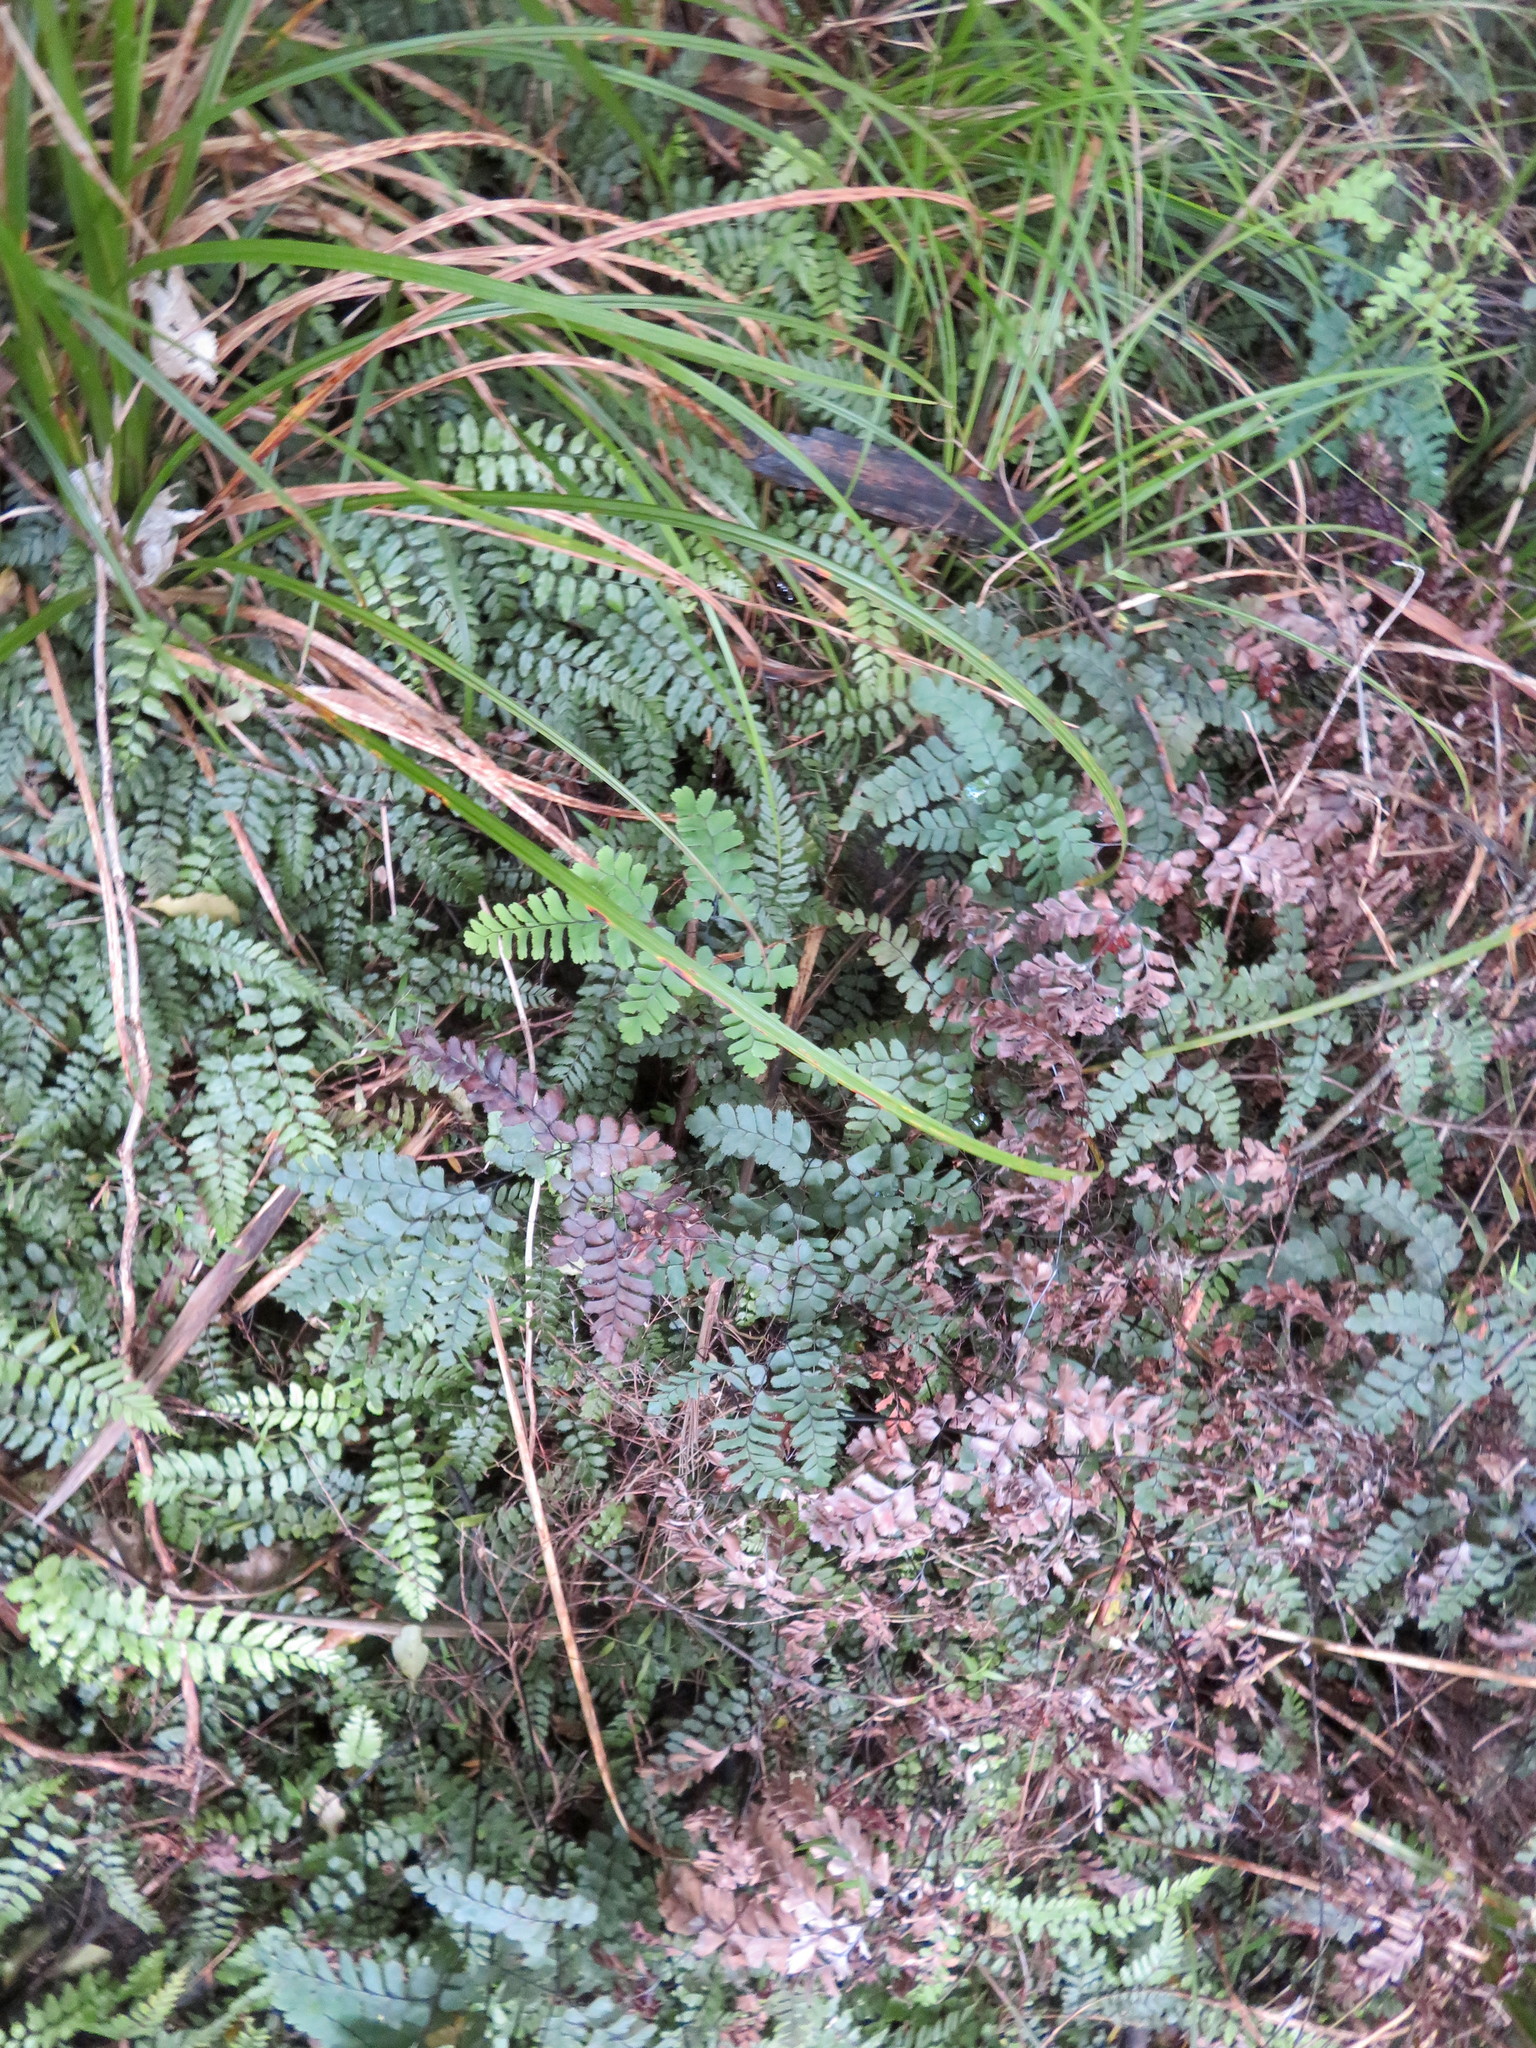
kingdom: Plantae
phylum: Tracheophyta
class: Polypodiopsida
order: Polypodiales
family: Pteridaceae
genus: Adiantum
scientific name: Adiantum cunninghamii
